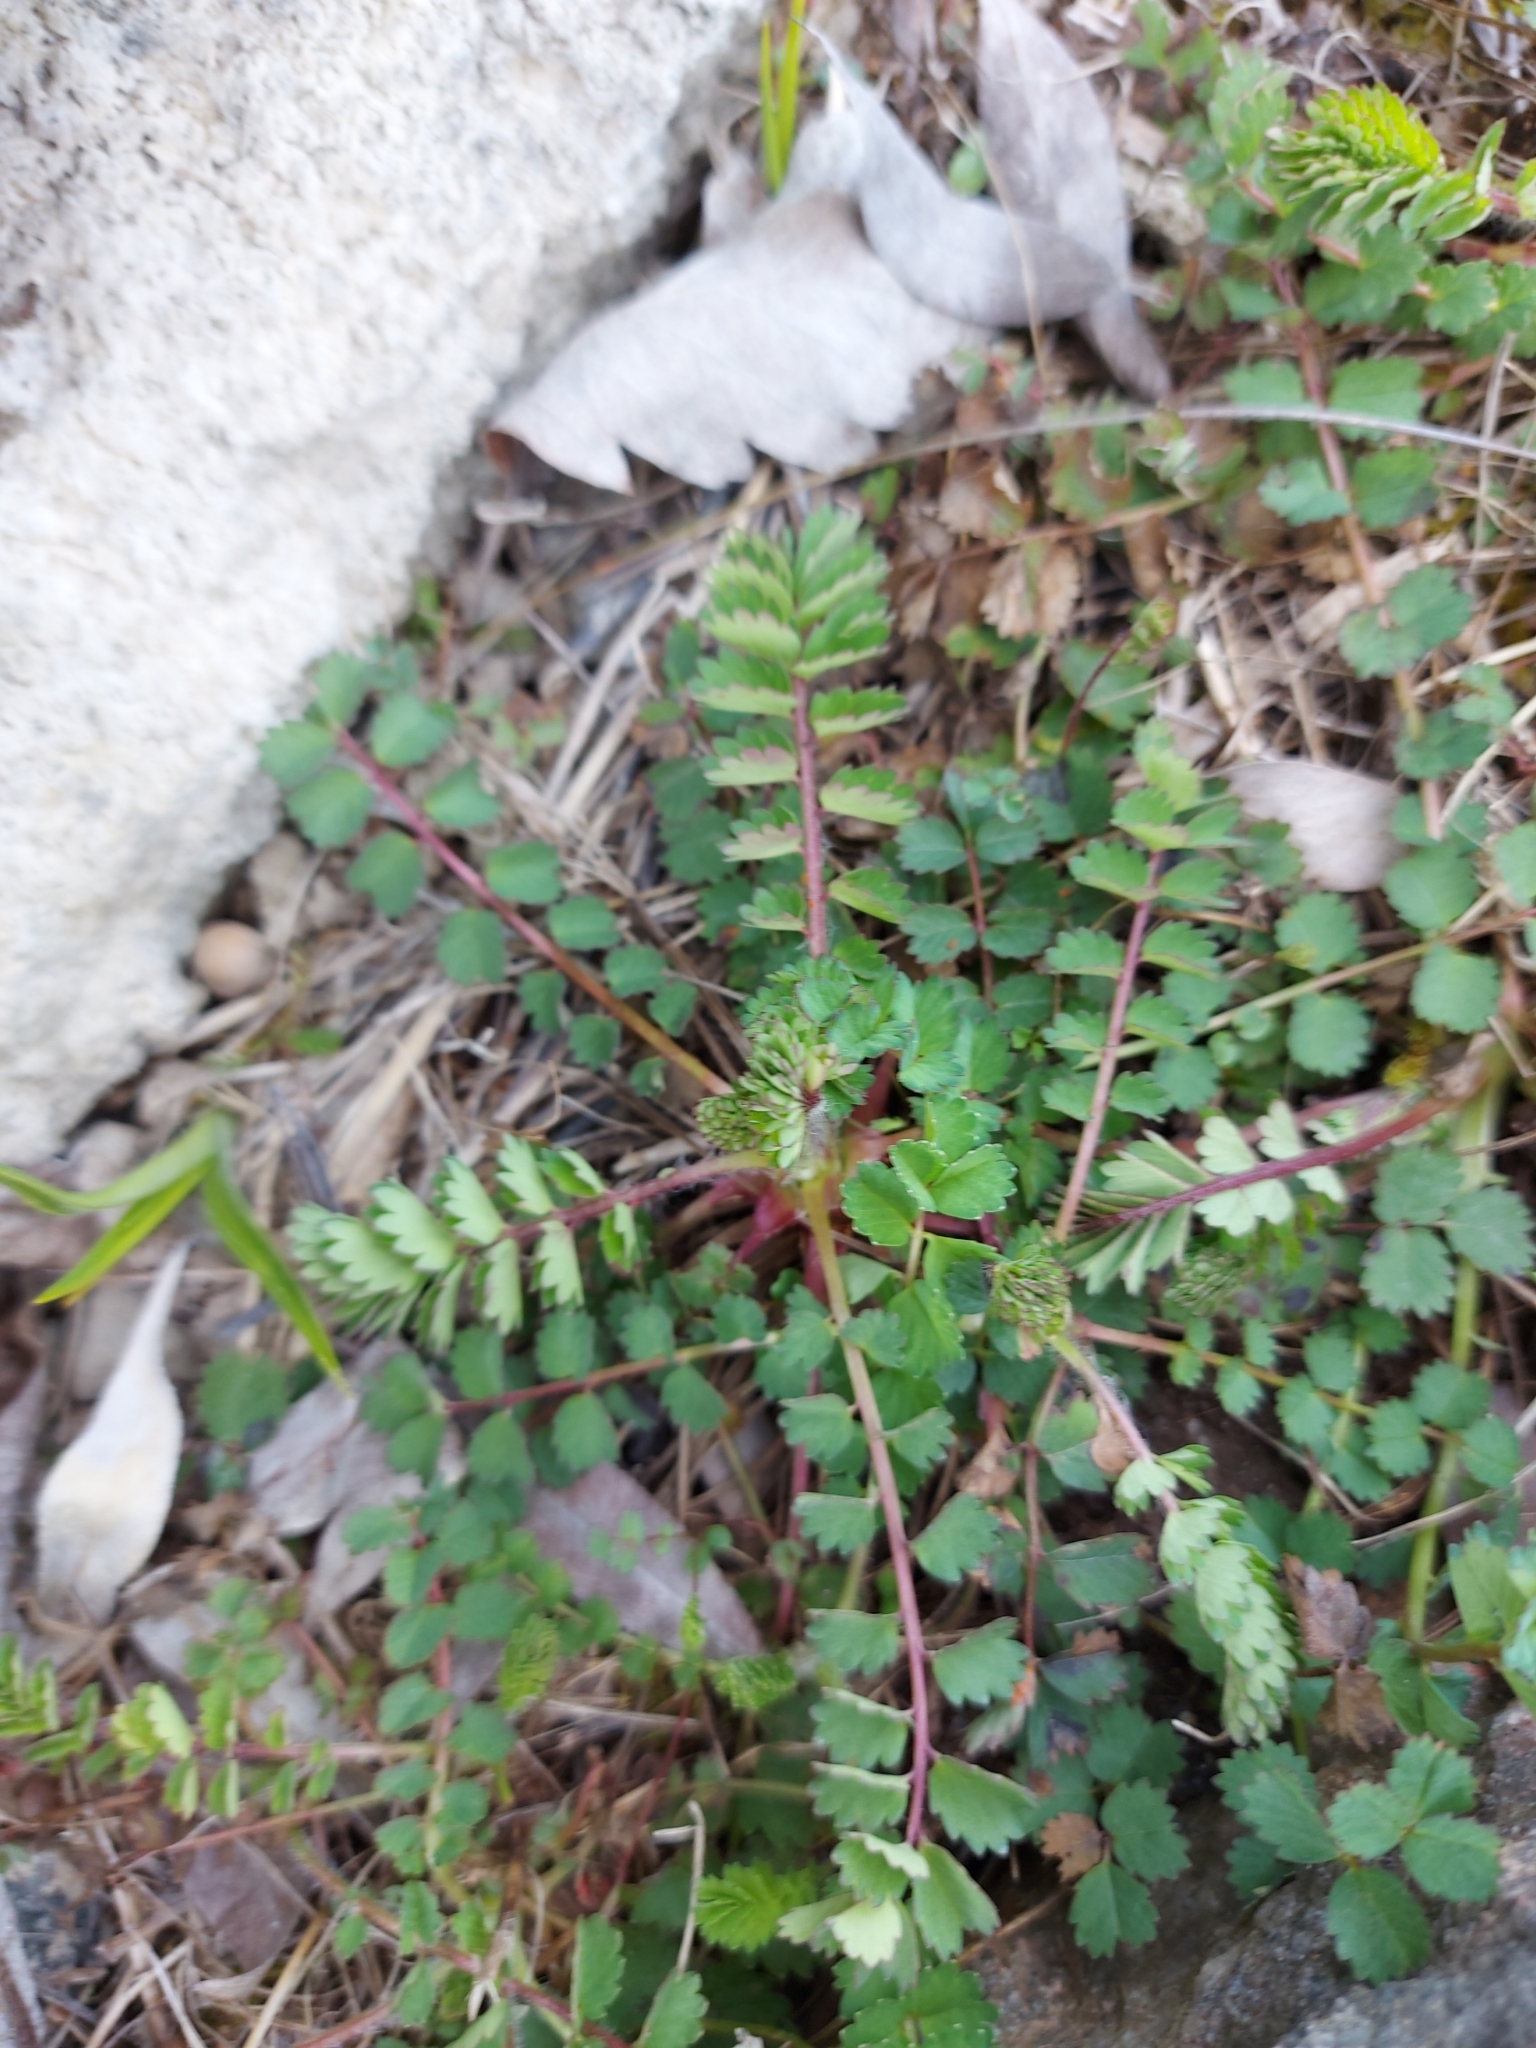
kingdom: Plantae
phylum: Tracheophyta
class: Magnoliopsida
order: Rosales
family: Rosaceae
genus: Poterium
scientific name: Poterium sanguisorba
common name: Salad burnet
